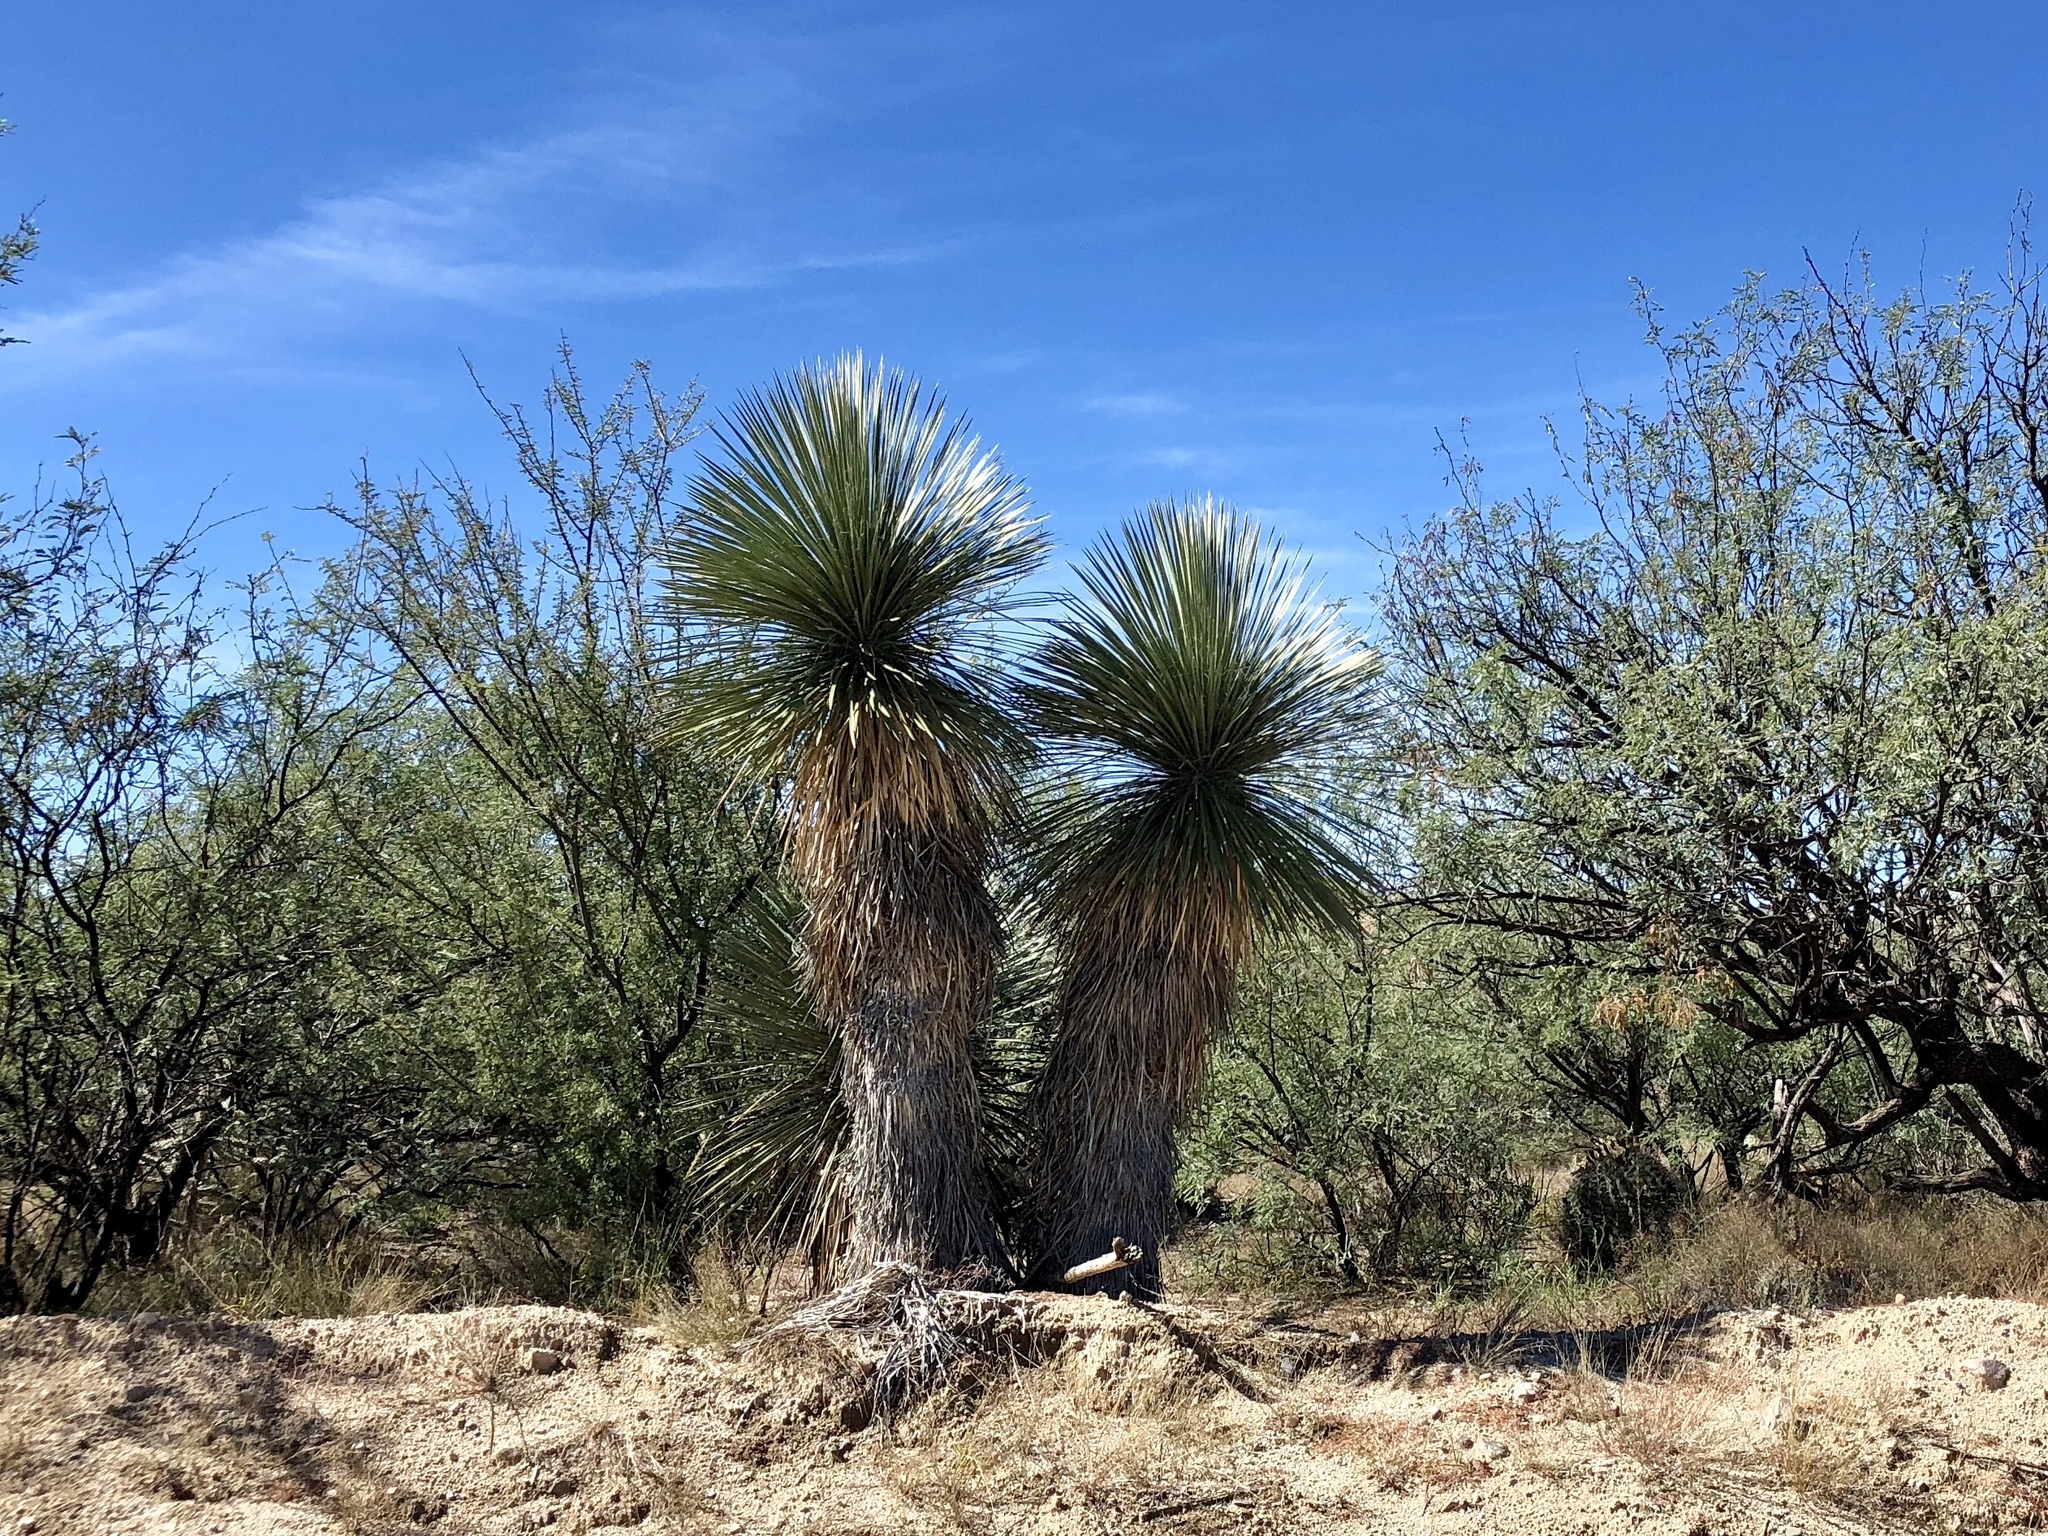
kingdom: Plantae
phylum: Tracheophyta
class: Liliopsida
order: Asparagales
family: Asparagaceae
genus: Yucca
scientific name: Yucca elata
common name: Palmella
